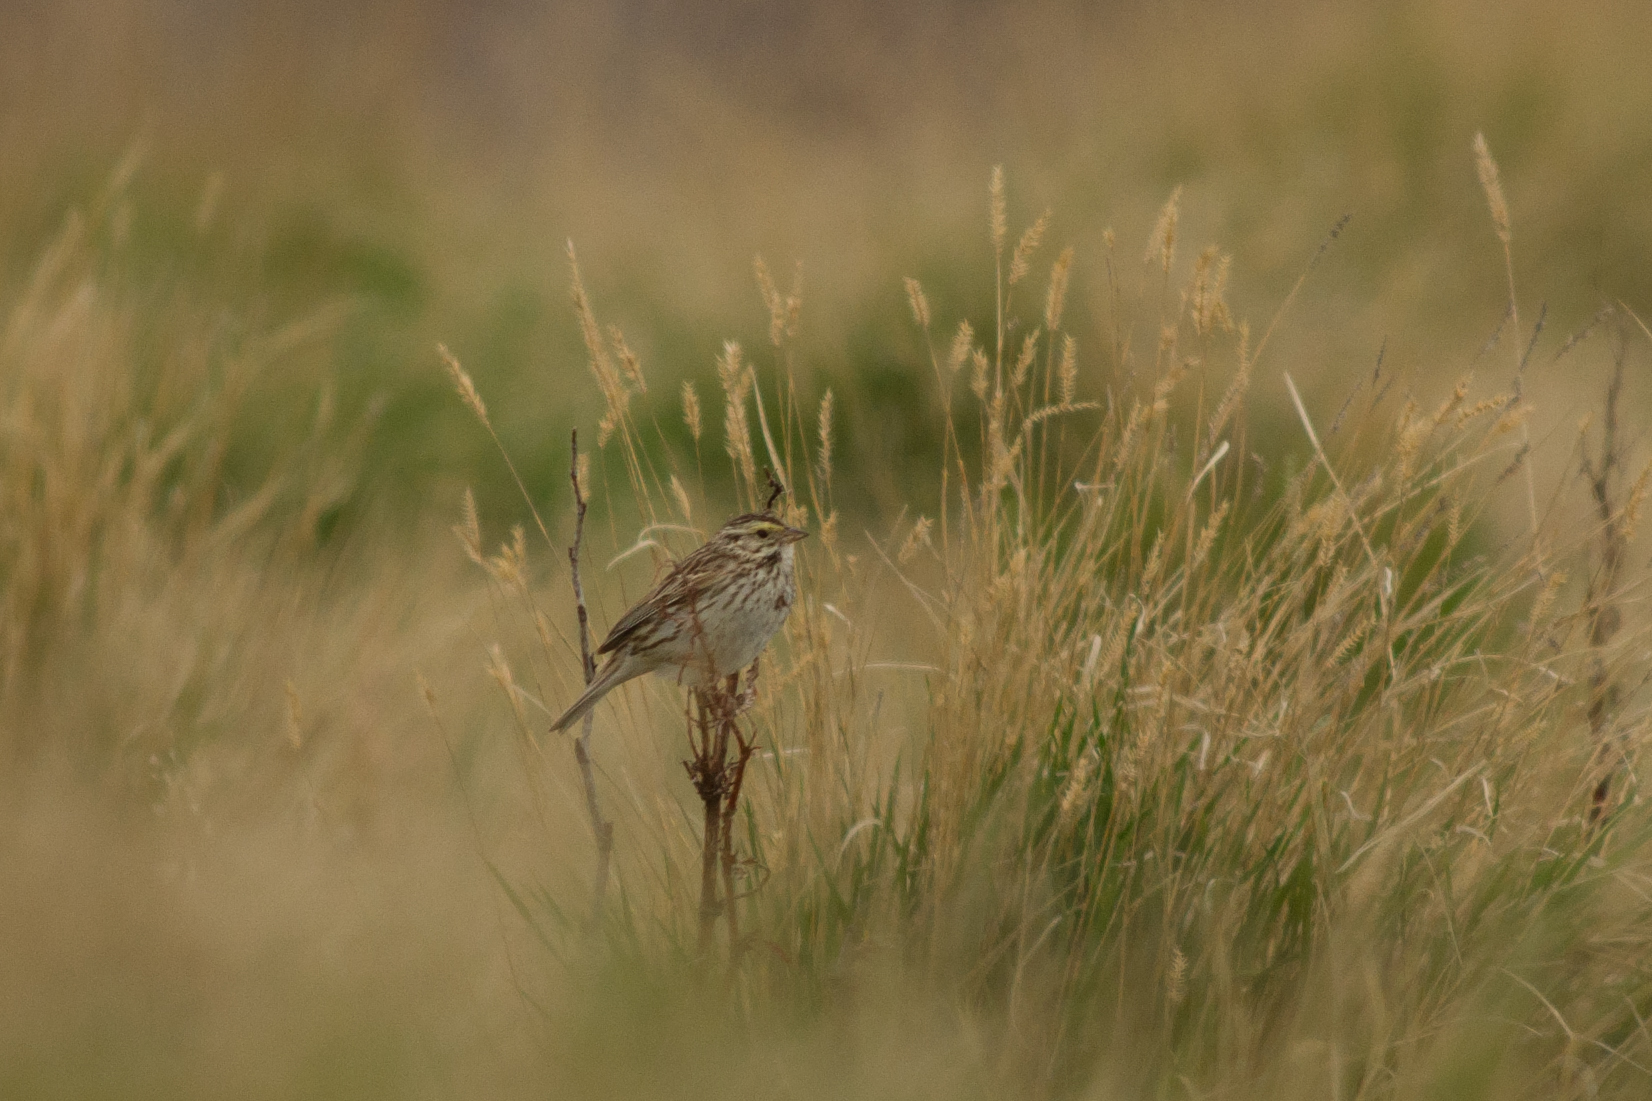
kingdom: Animalia
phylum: Chordata
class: Aves
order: Passeriformes
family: Passerellidae
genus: Passerculus
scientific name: Passerculus sandwichensis
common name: Savannah sparrow
